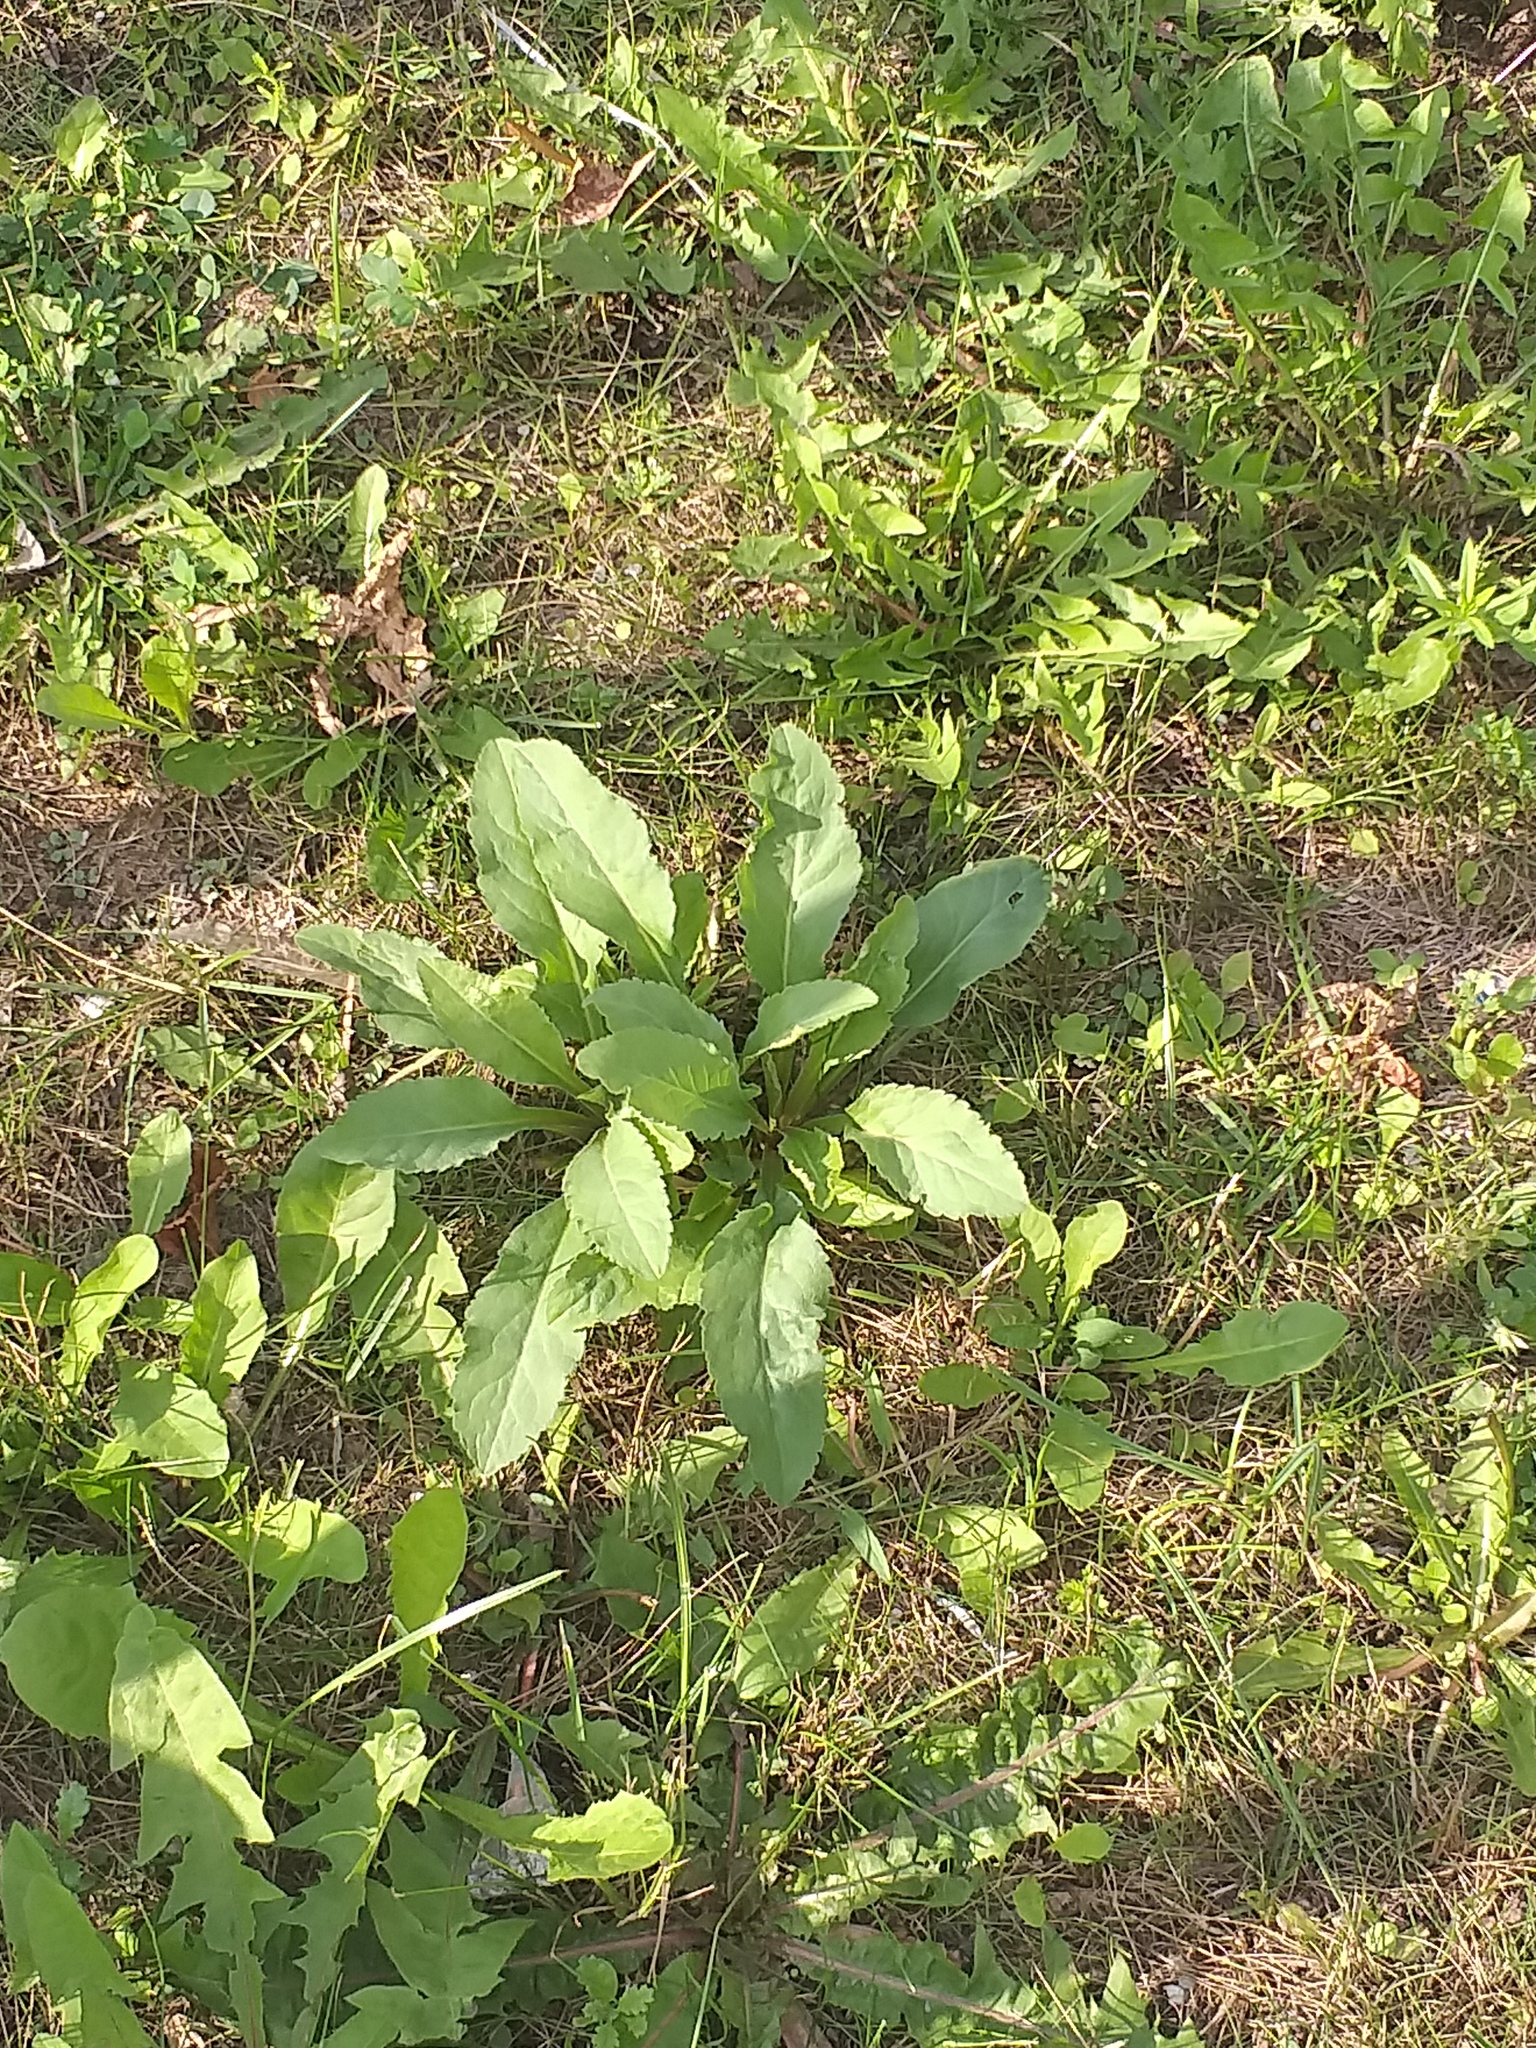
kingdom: Plantae
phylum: Tracheophyta
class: Magnoliopsida
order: Asterales
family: Asteraceae
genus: Solidago
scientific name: Solidago virgaurea
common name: Goldenrod
